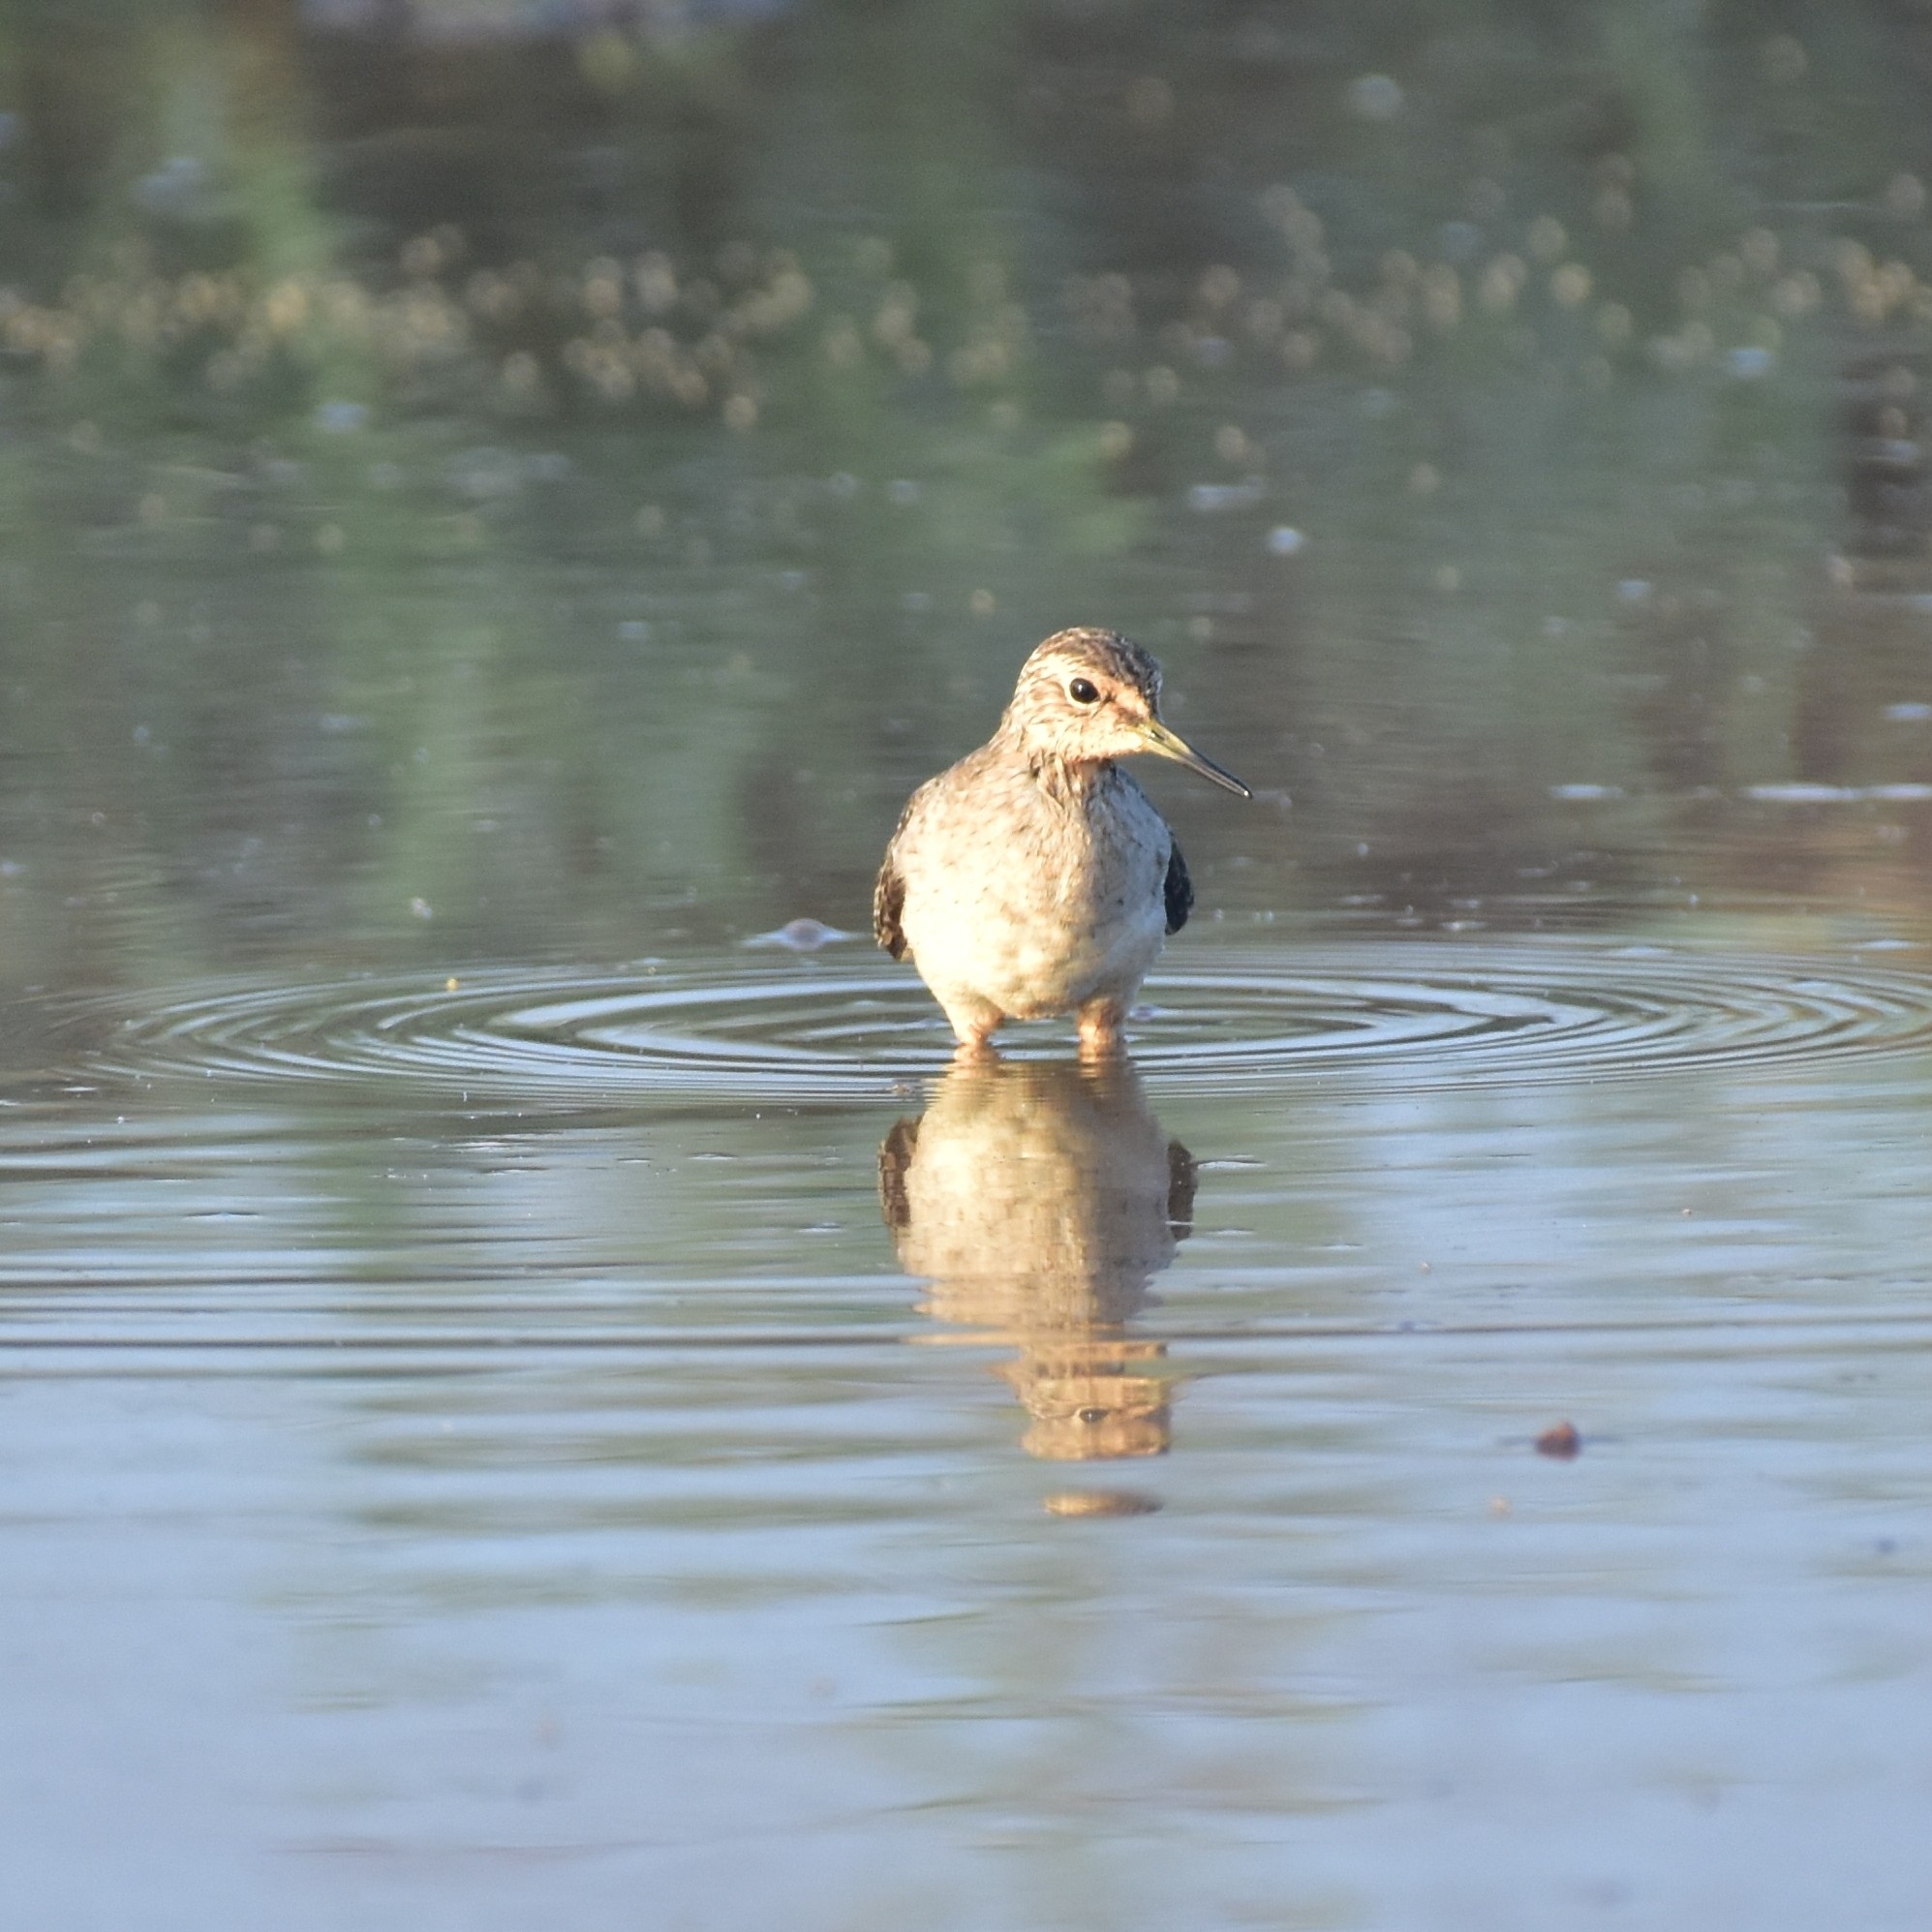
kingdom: Animalia
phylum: Chordata
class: Aves
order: Charadriiformes
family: Scolopacidae
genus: Tringa
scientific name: Tringa glareola
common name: Wood sandpiper
